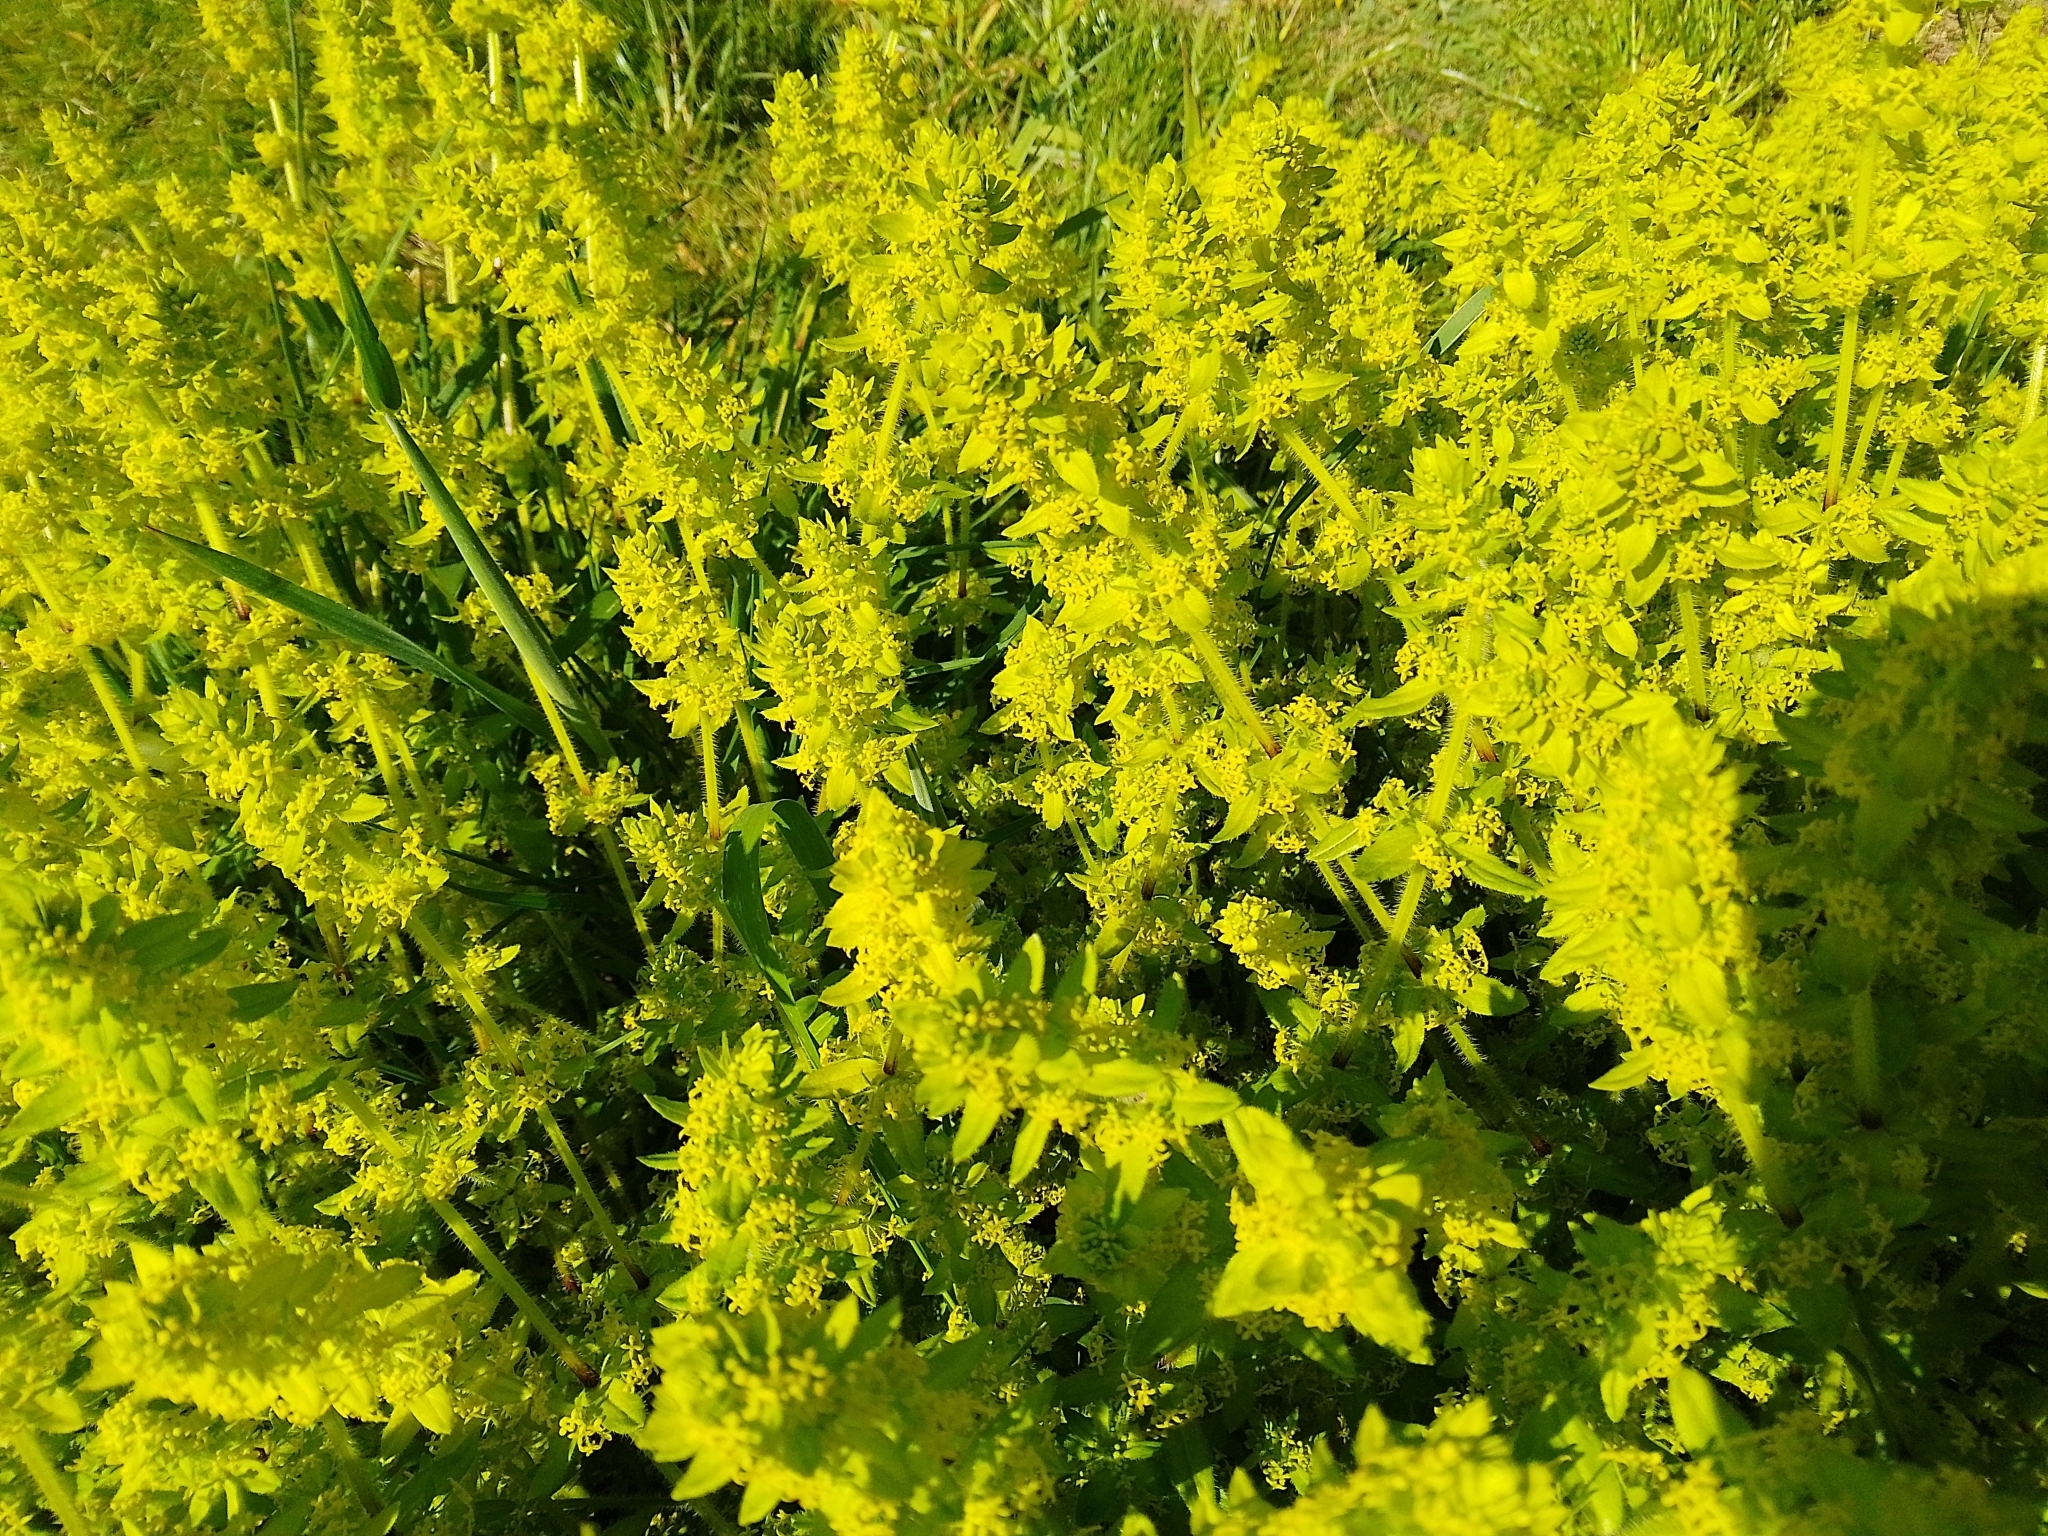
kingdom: Plantae
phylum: Tracheophyta
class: Magnoliopsida
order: Gentianales
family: Rubiaceae
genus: Cruciata
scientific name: Cruciata laevipes
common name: Crosswort
